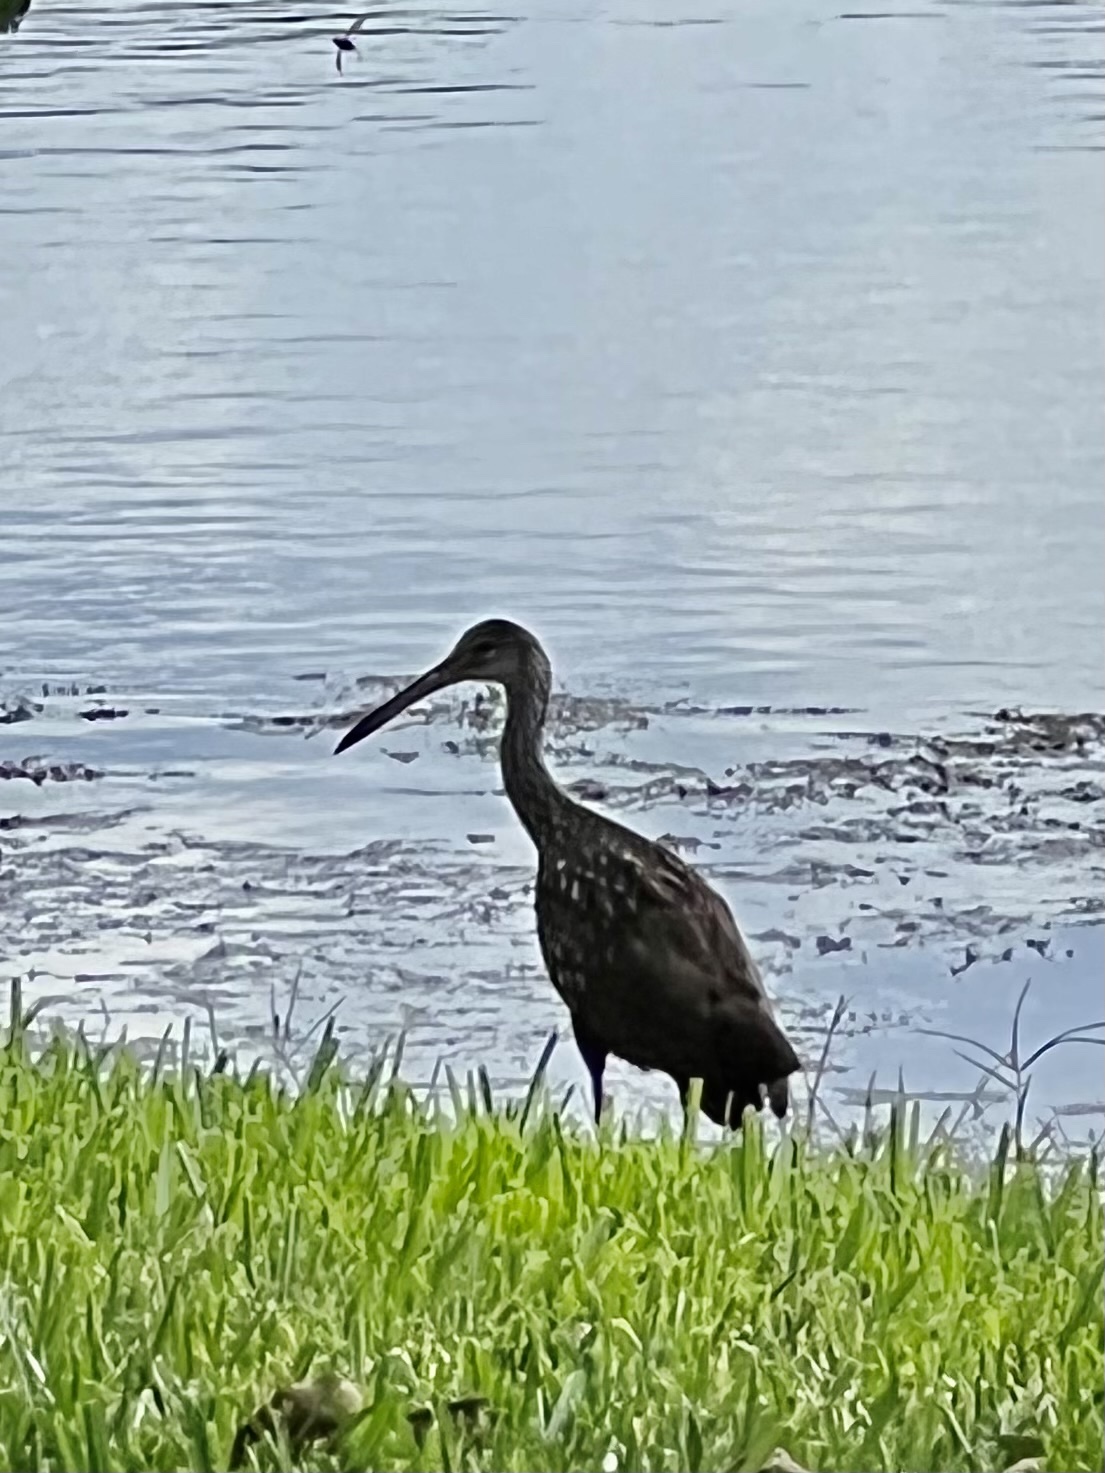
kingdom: Animalia
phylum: Chordata
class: Aves
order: Gruiformes
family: Aramidae
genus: Aramus
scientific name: Aramus guarauna
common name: Limpkin
